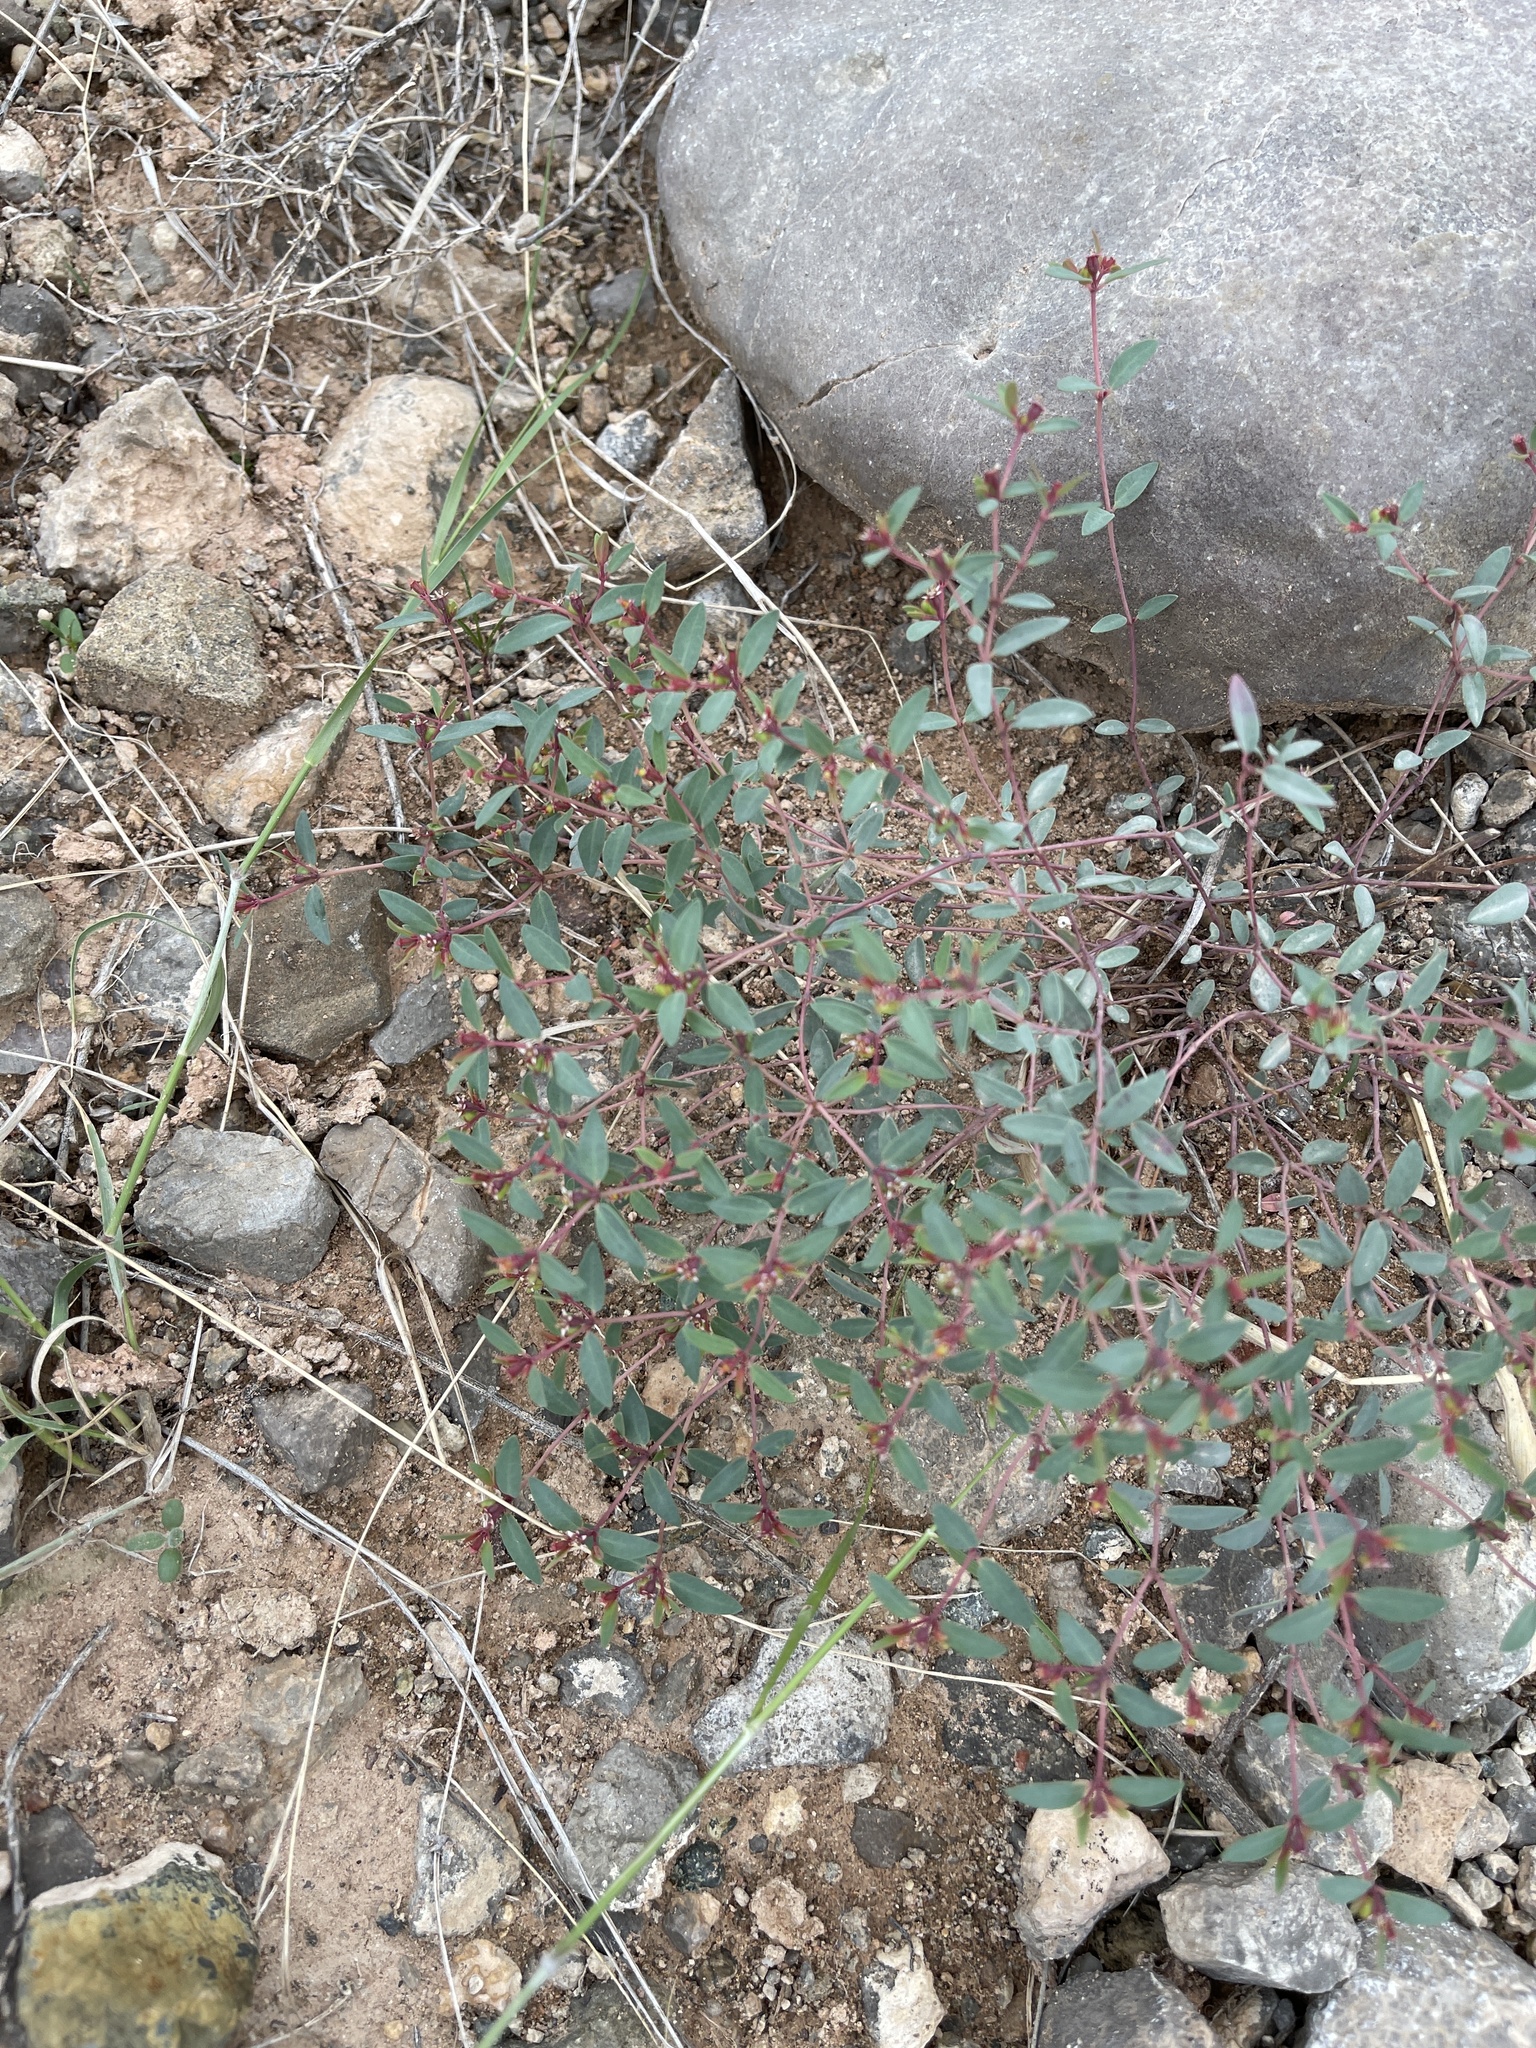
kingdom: Plantae
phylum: Tracheophyta
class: Magnoliopsida
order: Malpighiales
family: Euphorbiaceae
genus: Euphorbia
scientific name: Euphorbia chaetocalyx
